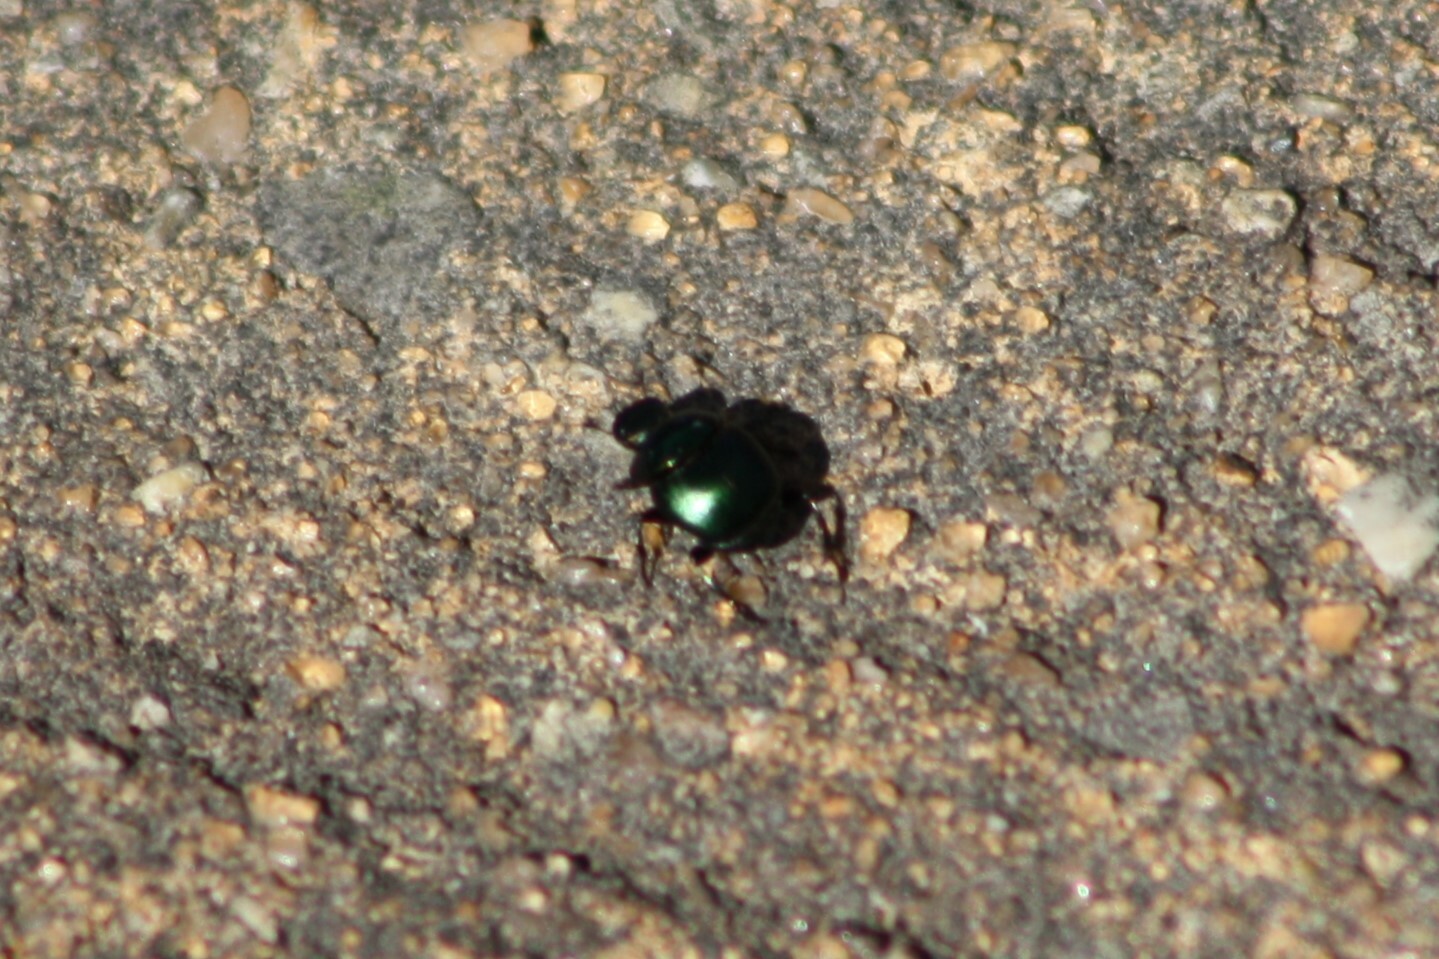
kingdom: Animalia
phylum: Arthropoda
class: Insecta
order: Coleoptera
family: Scarabaeidae
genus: Canthon
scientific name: Canthon viridis
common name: Tumblebug
